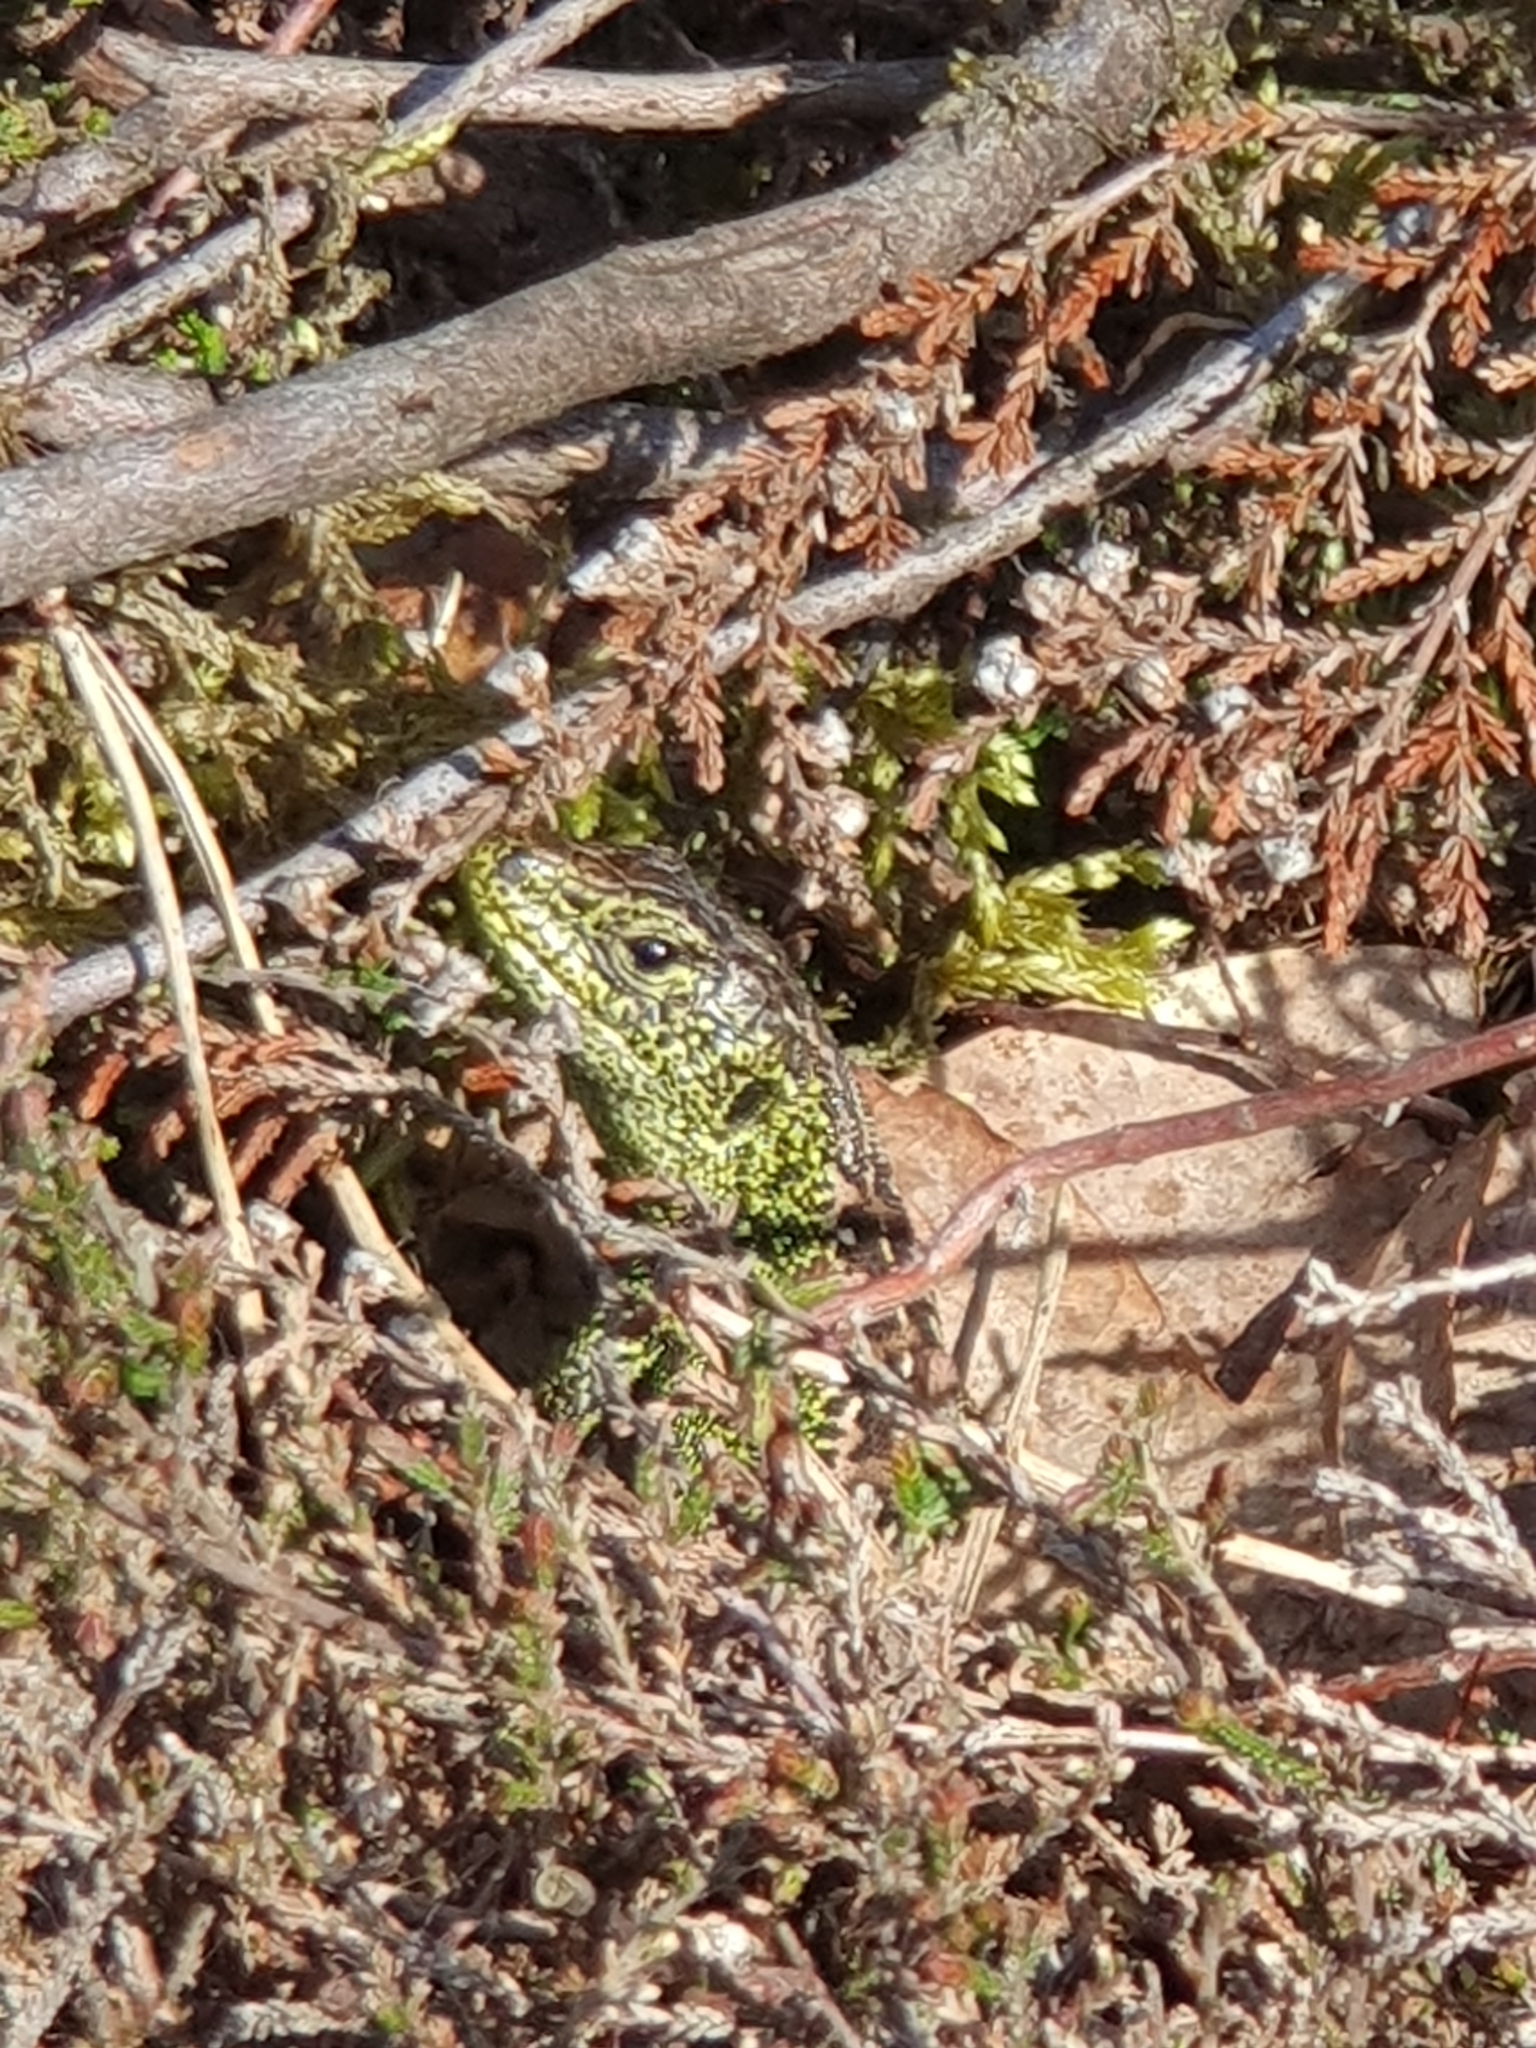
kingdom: Animalia
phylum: Chordata
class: Squamata
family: Lacertidae
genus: Lacerta
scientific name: Lacerta agilis
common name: Sand lizard
